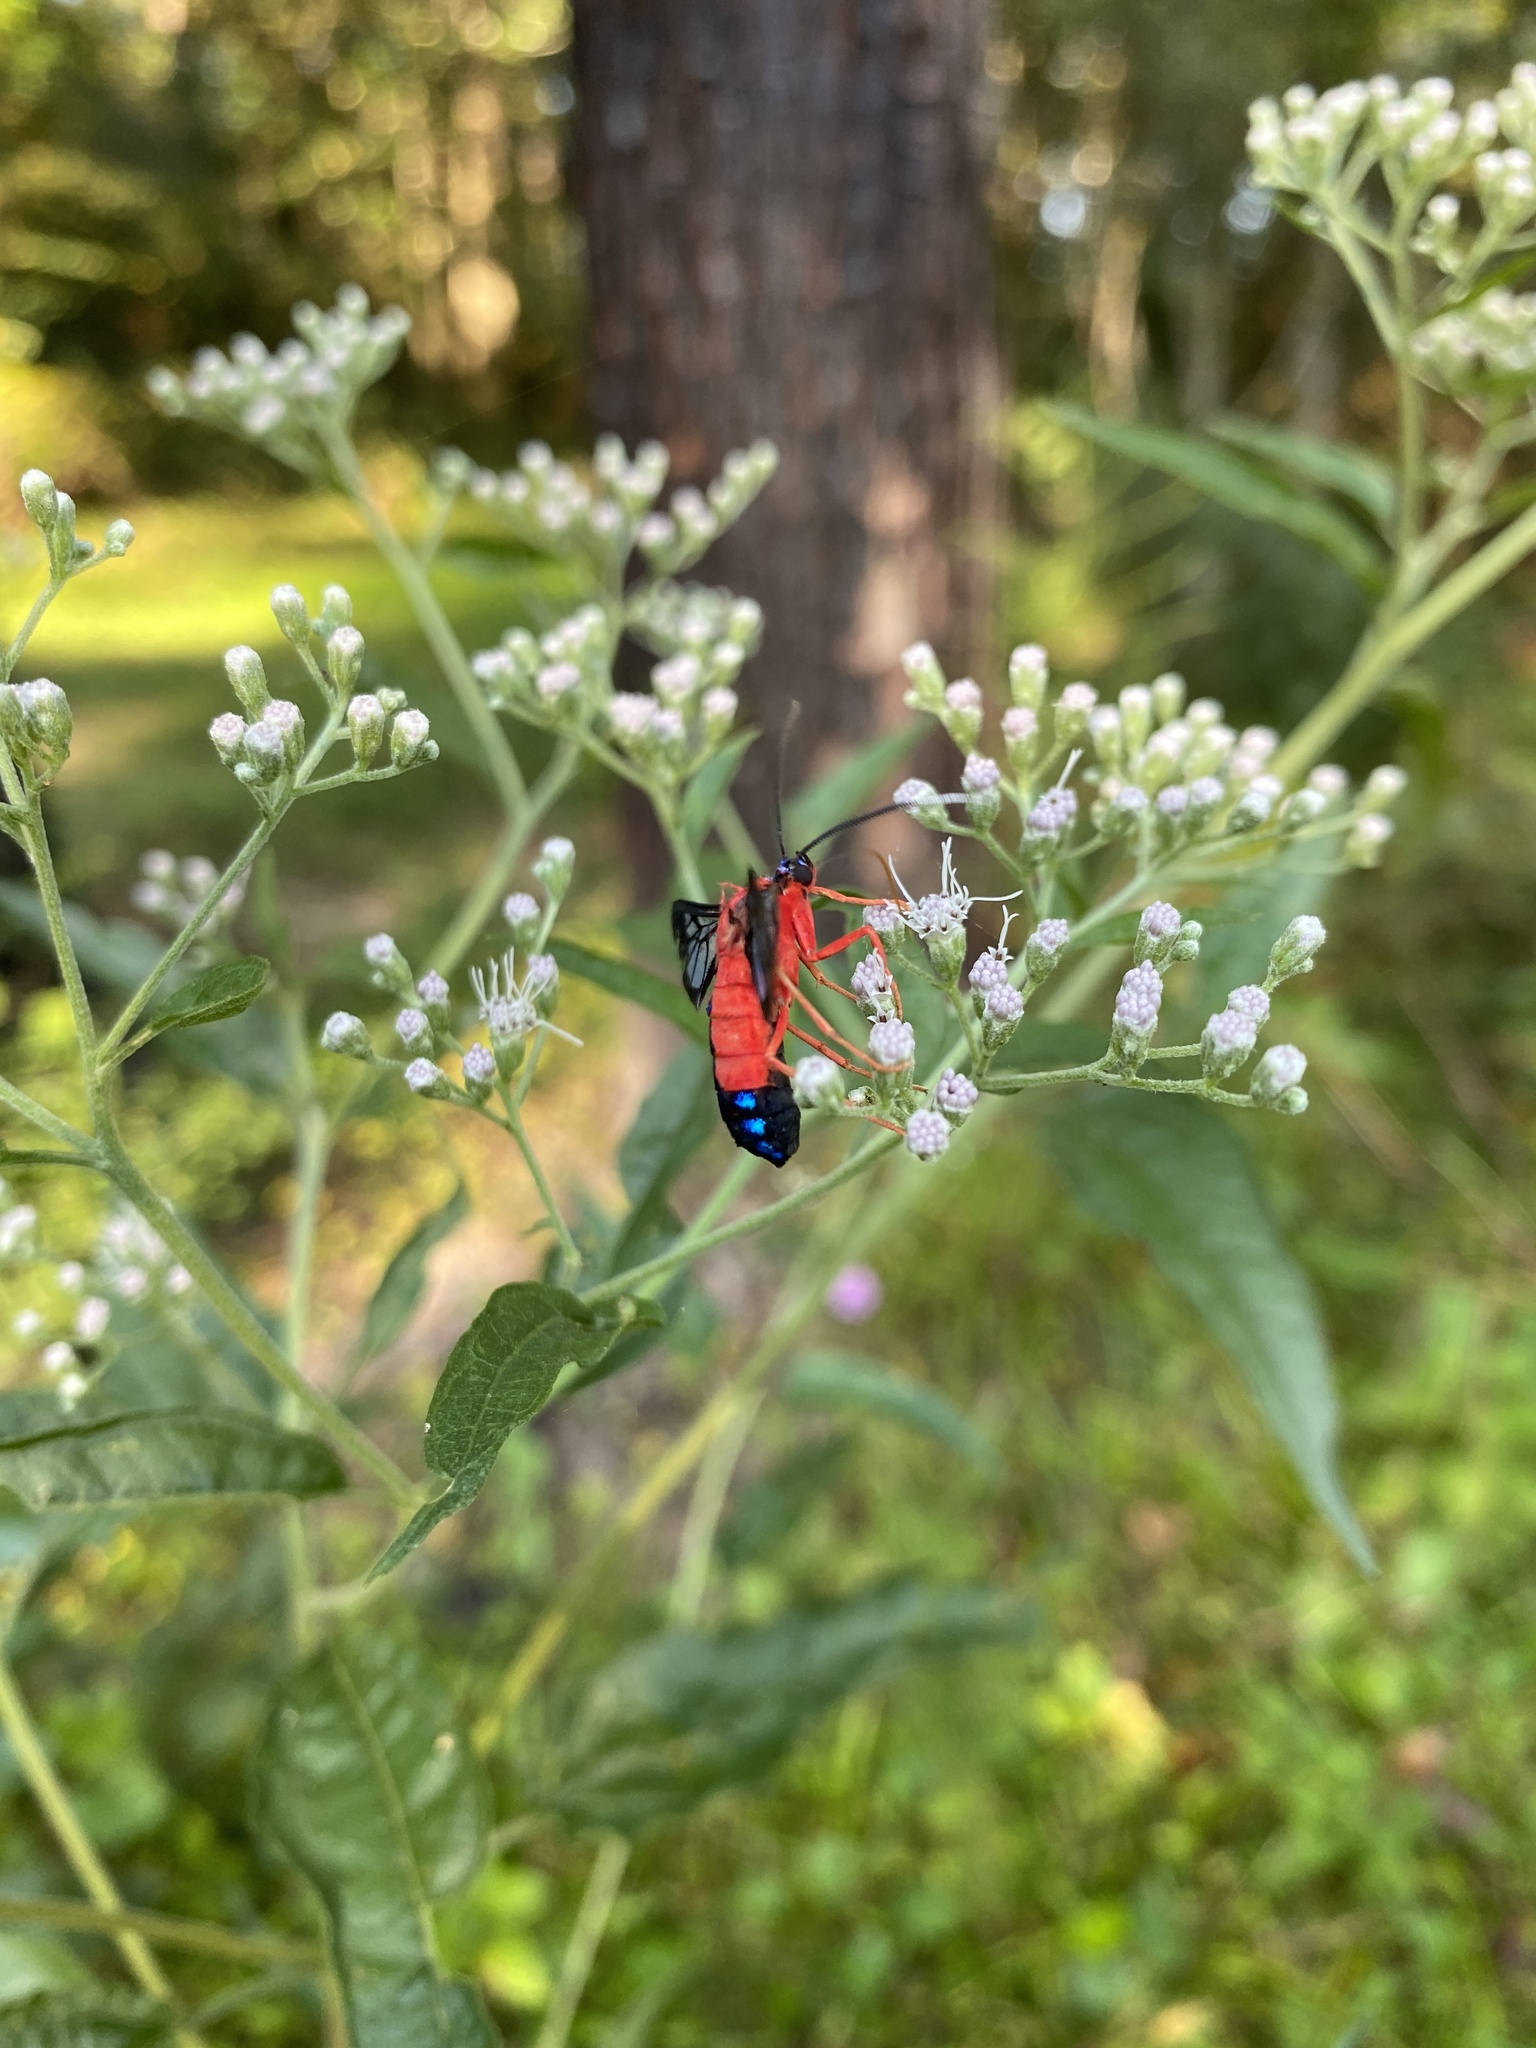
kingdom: Animalia
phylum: Arthropoda
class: Insecta
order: Lepidoptera
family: Erebidae
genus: Cosmosoma
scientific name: Cosmosoma myrodora
